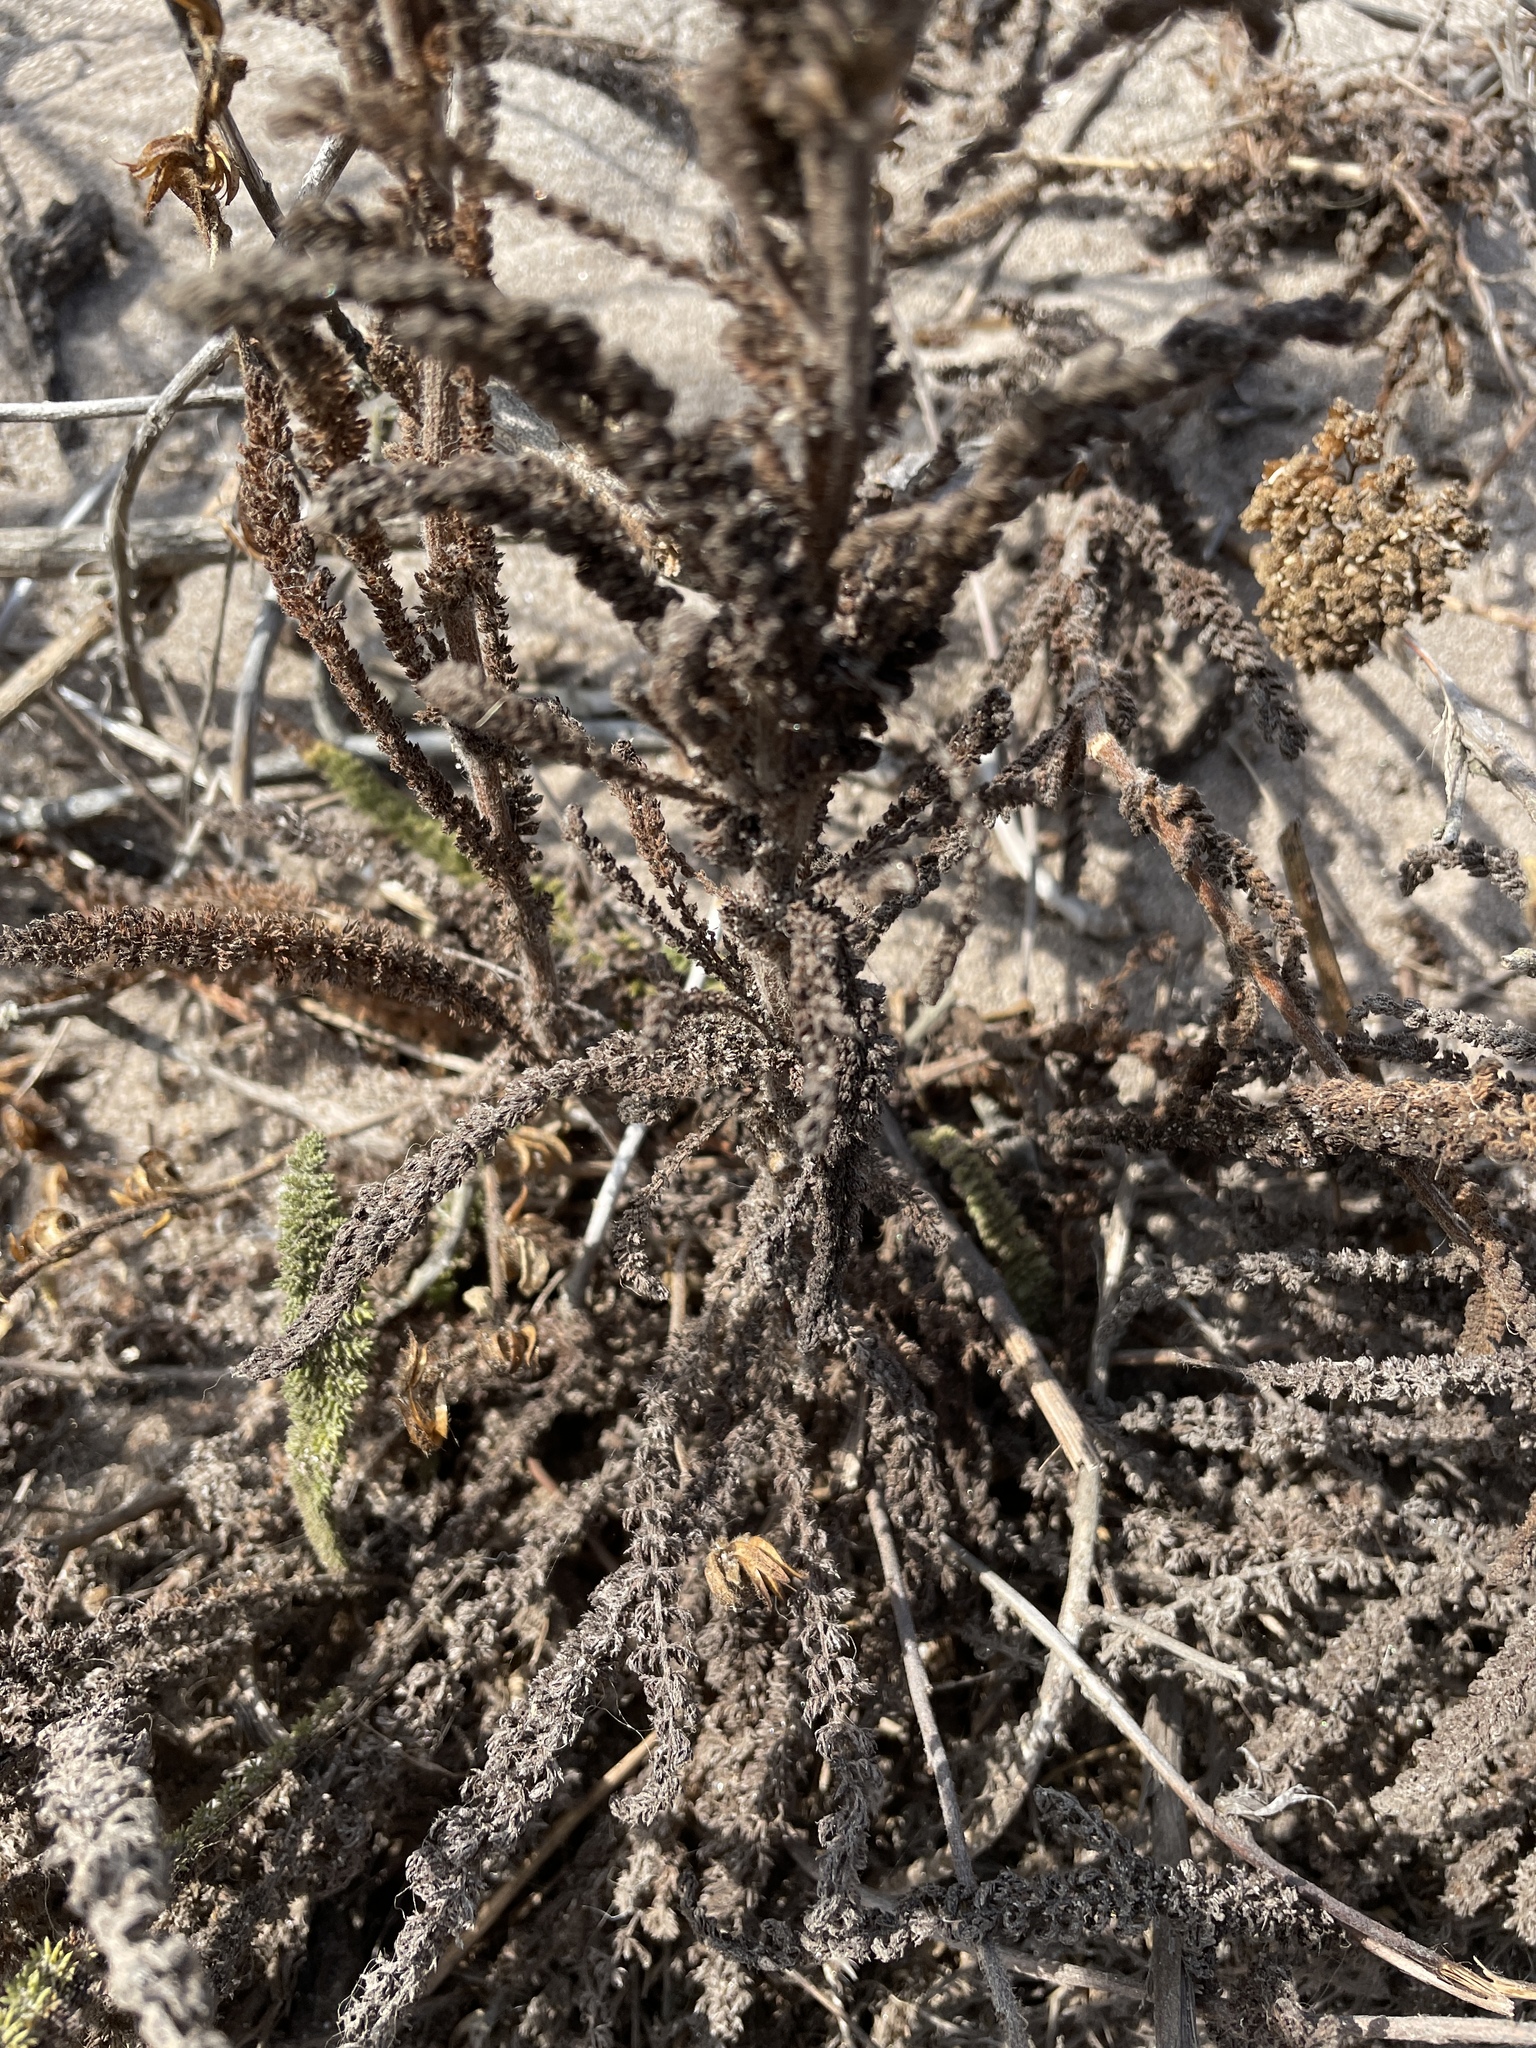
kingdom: Plantae
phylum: Tracheophyta
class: Magnoliopsida
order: Asterales
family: Asteraceae
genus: Achillea
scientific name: Achillea millefolium
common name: Yarrow
